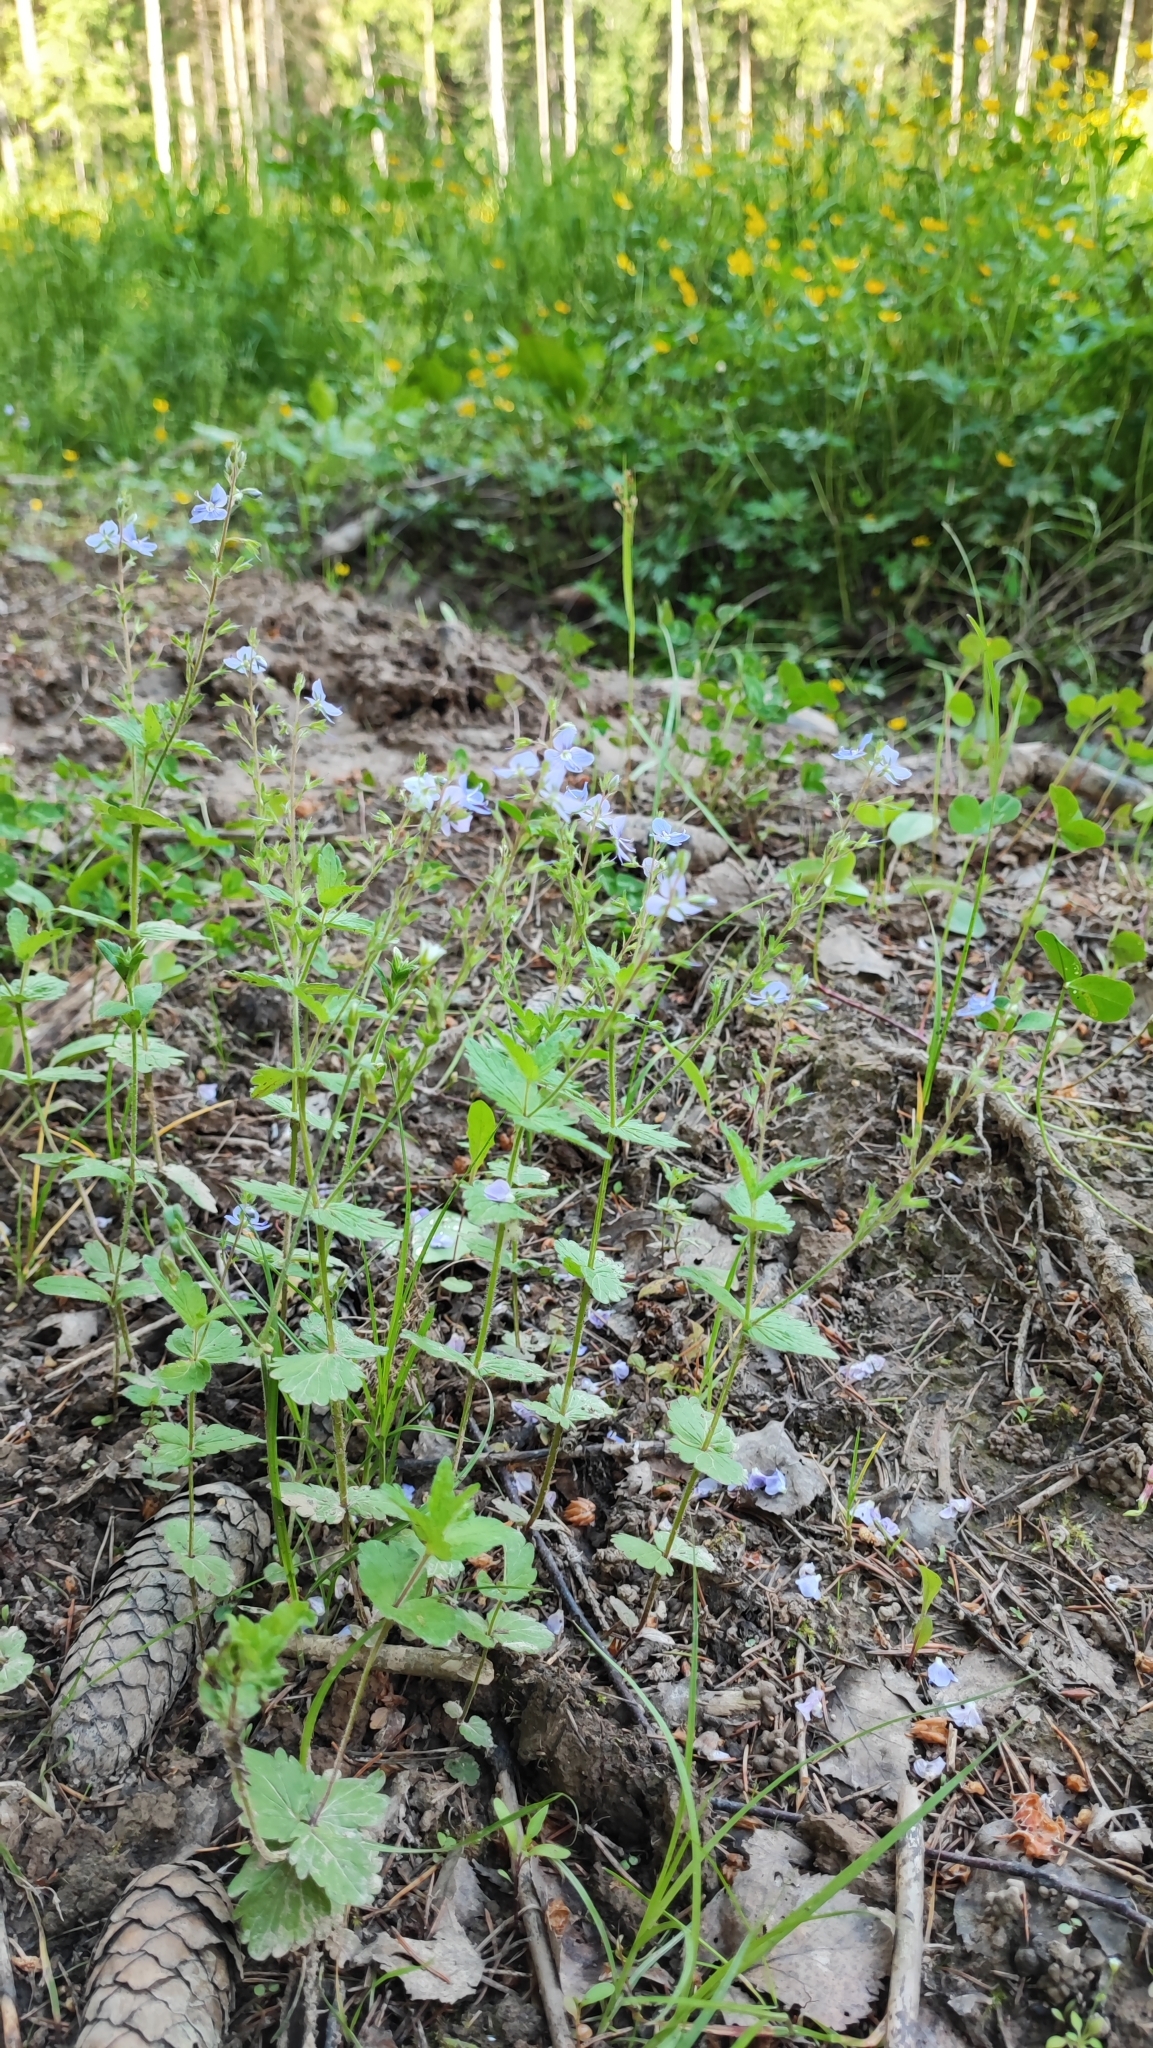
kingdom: Plantae
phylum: Tracheophyta
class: Magnoliopsida
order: Lamiales
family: Plantaginaceae
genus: Veronica
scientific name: Veronica chamaedrys
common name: Germander speedwell
